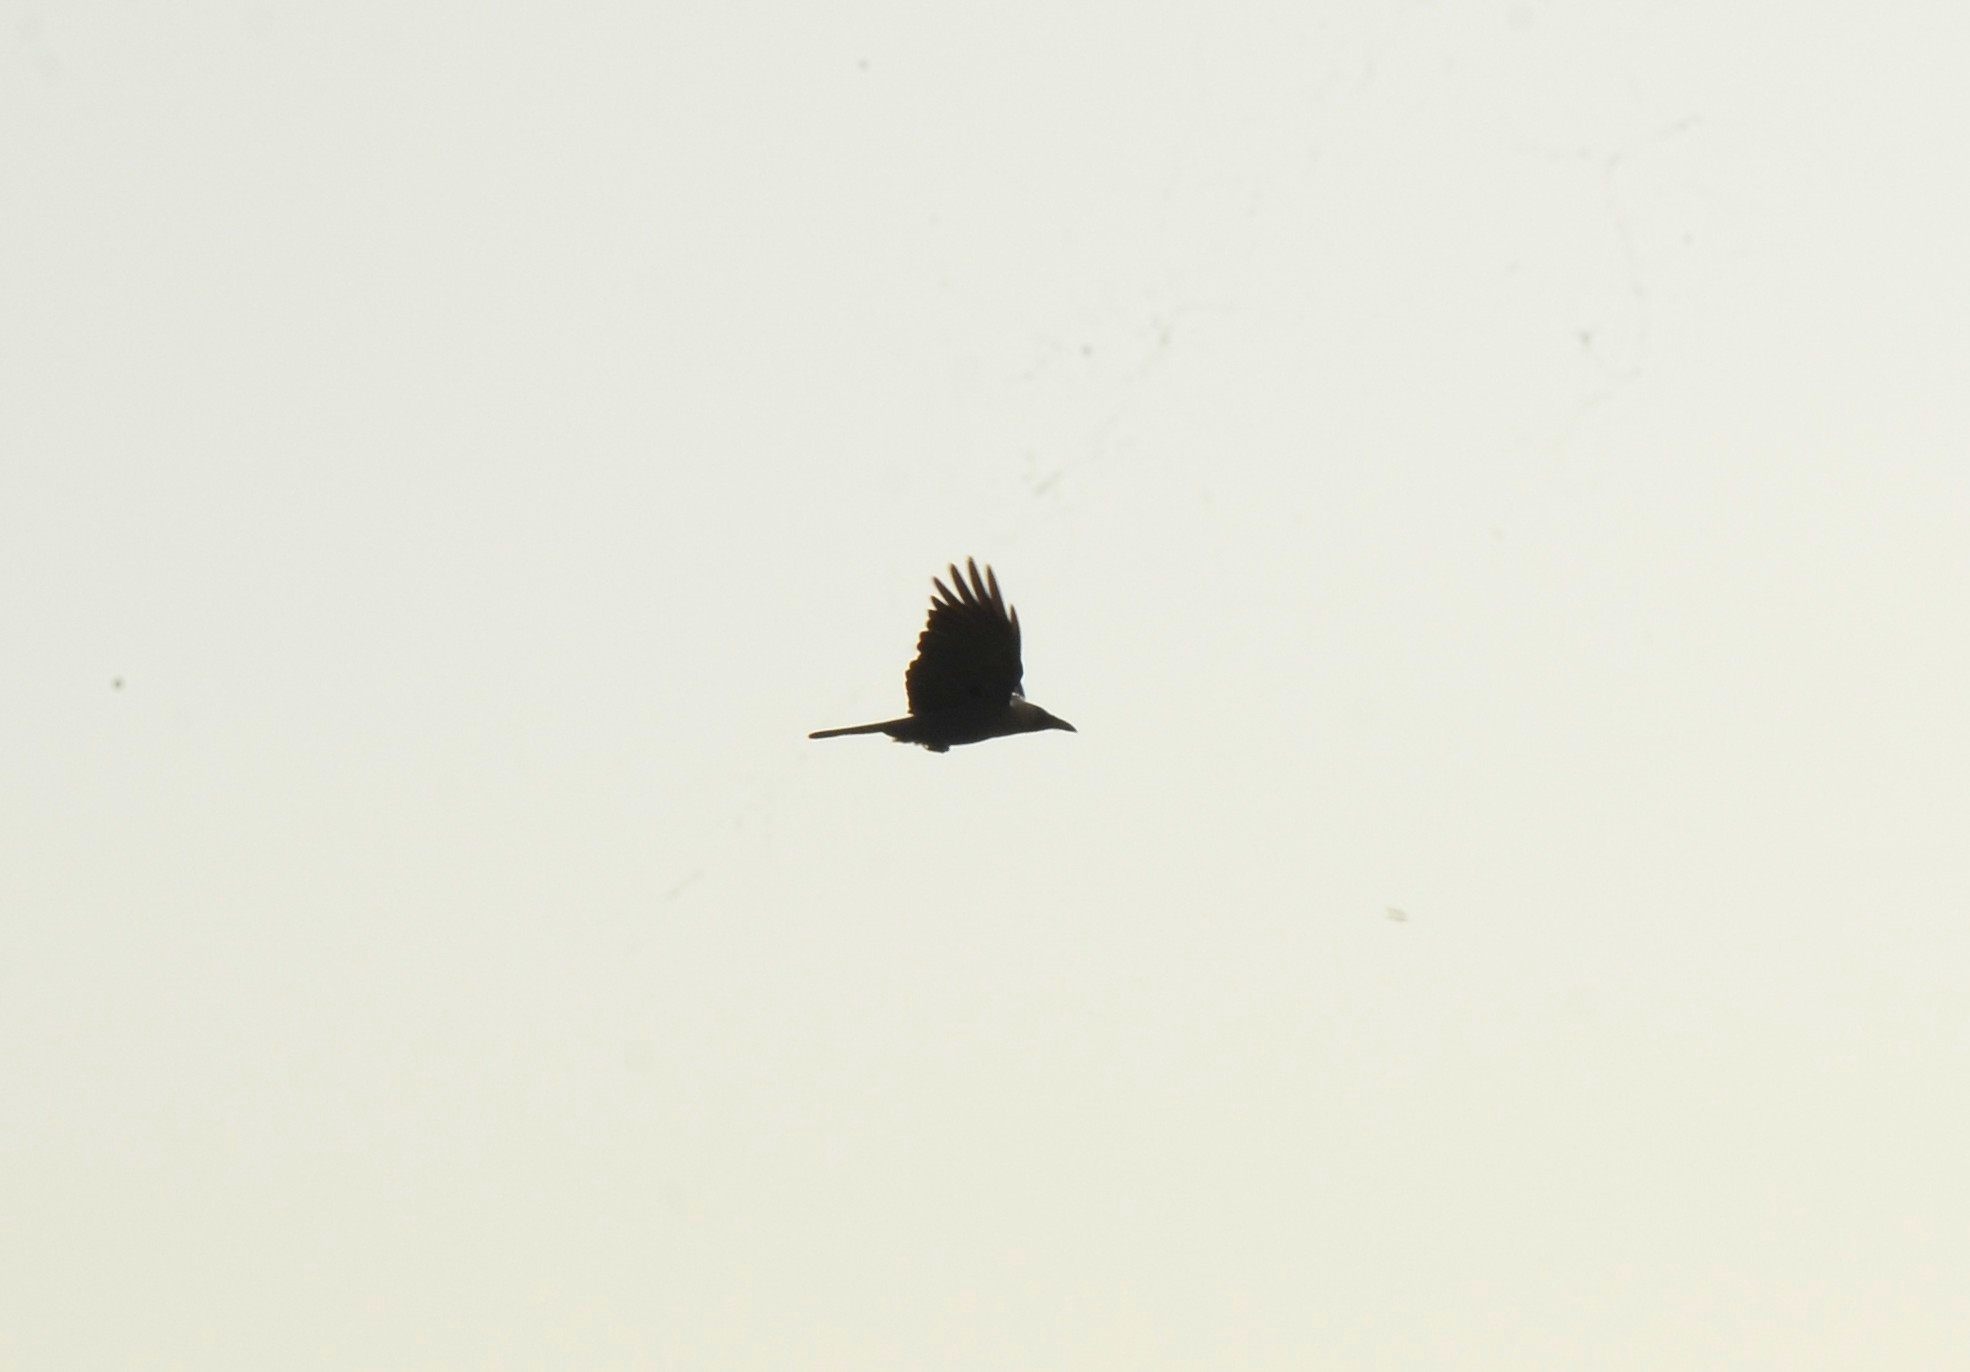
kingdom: Animalia
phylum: Chordata
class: Aves
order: Passeriformes
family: Corvidae
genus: Corvus
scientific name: Corvus splendens
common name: House crow
